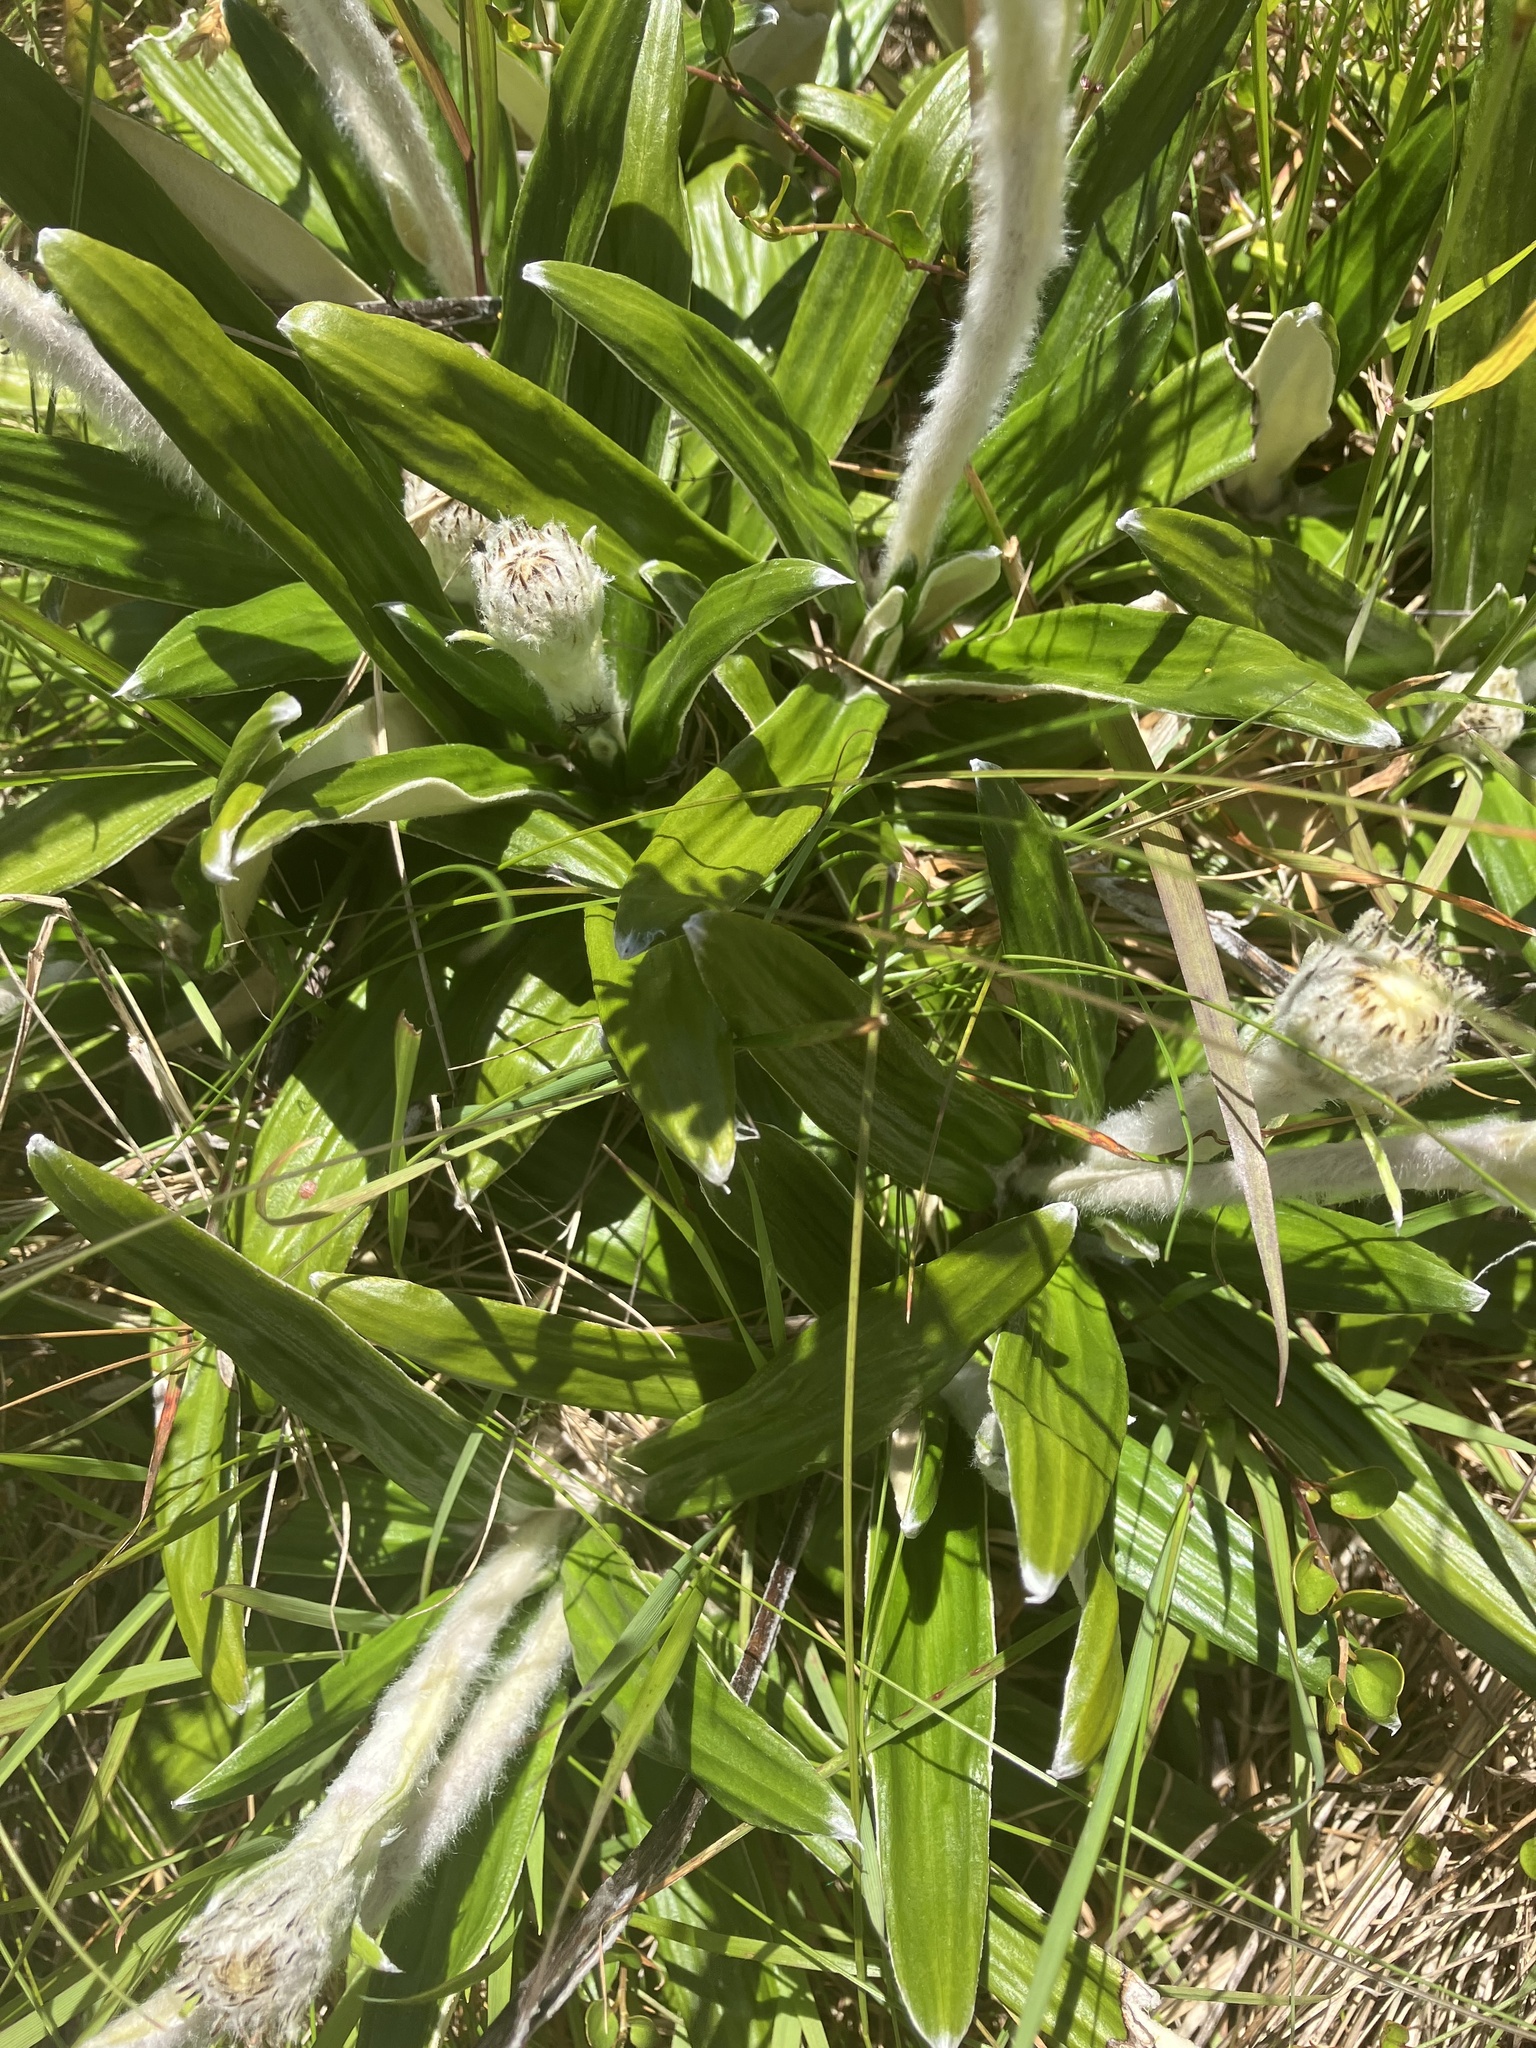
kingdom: Plantae
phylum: Tracheophyta
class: Magnoliopsida
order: Asterales
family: Asteraceae
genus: Celmisia
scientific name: Celmisia spectabilis
